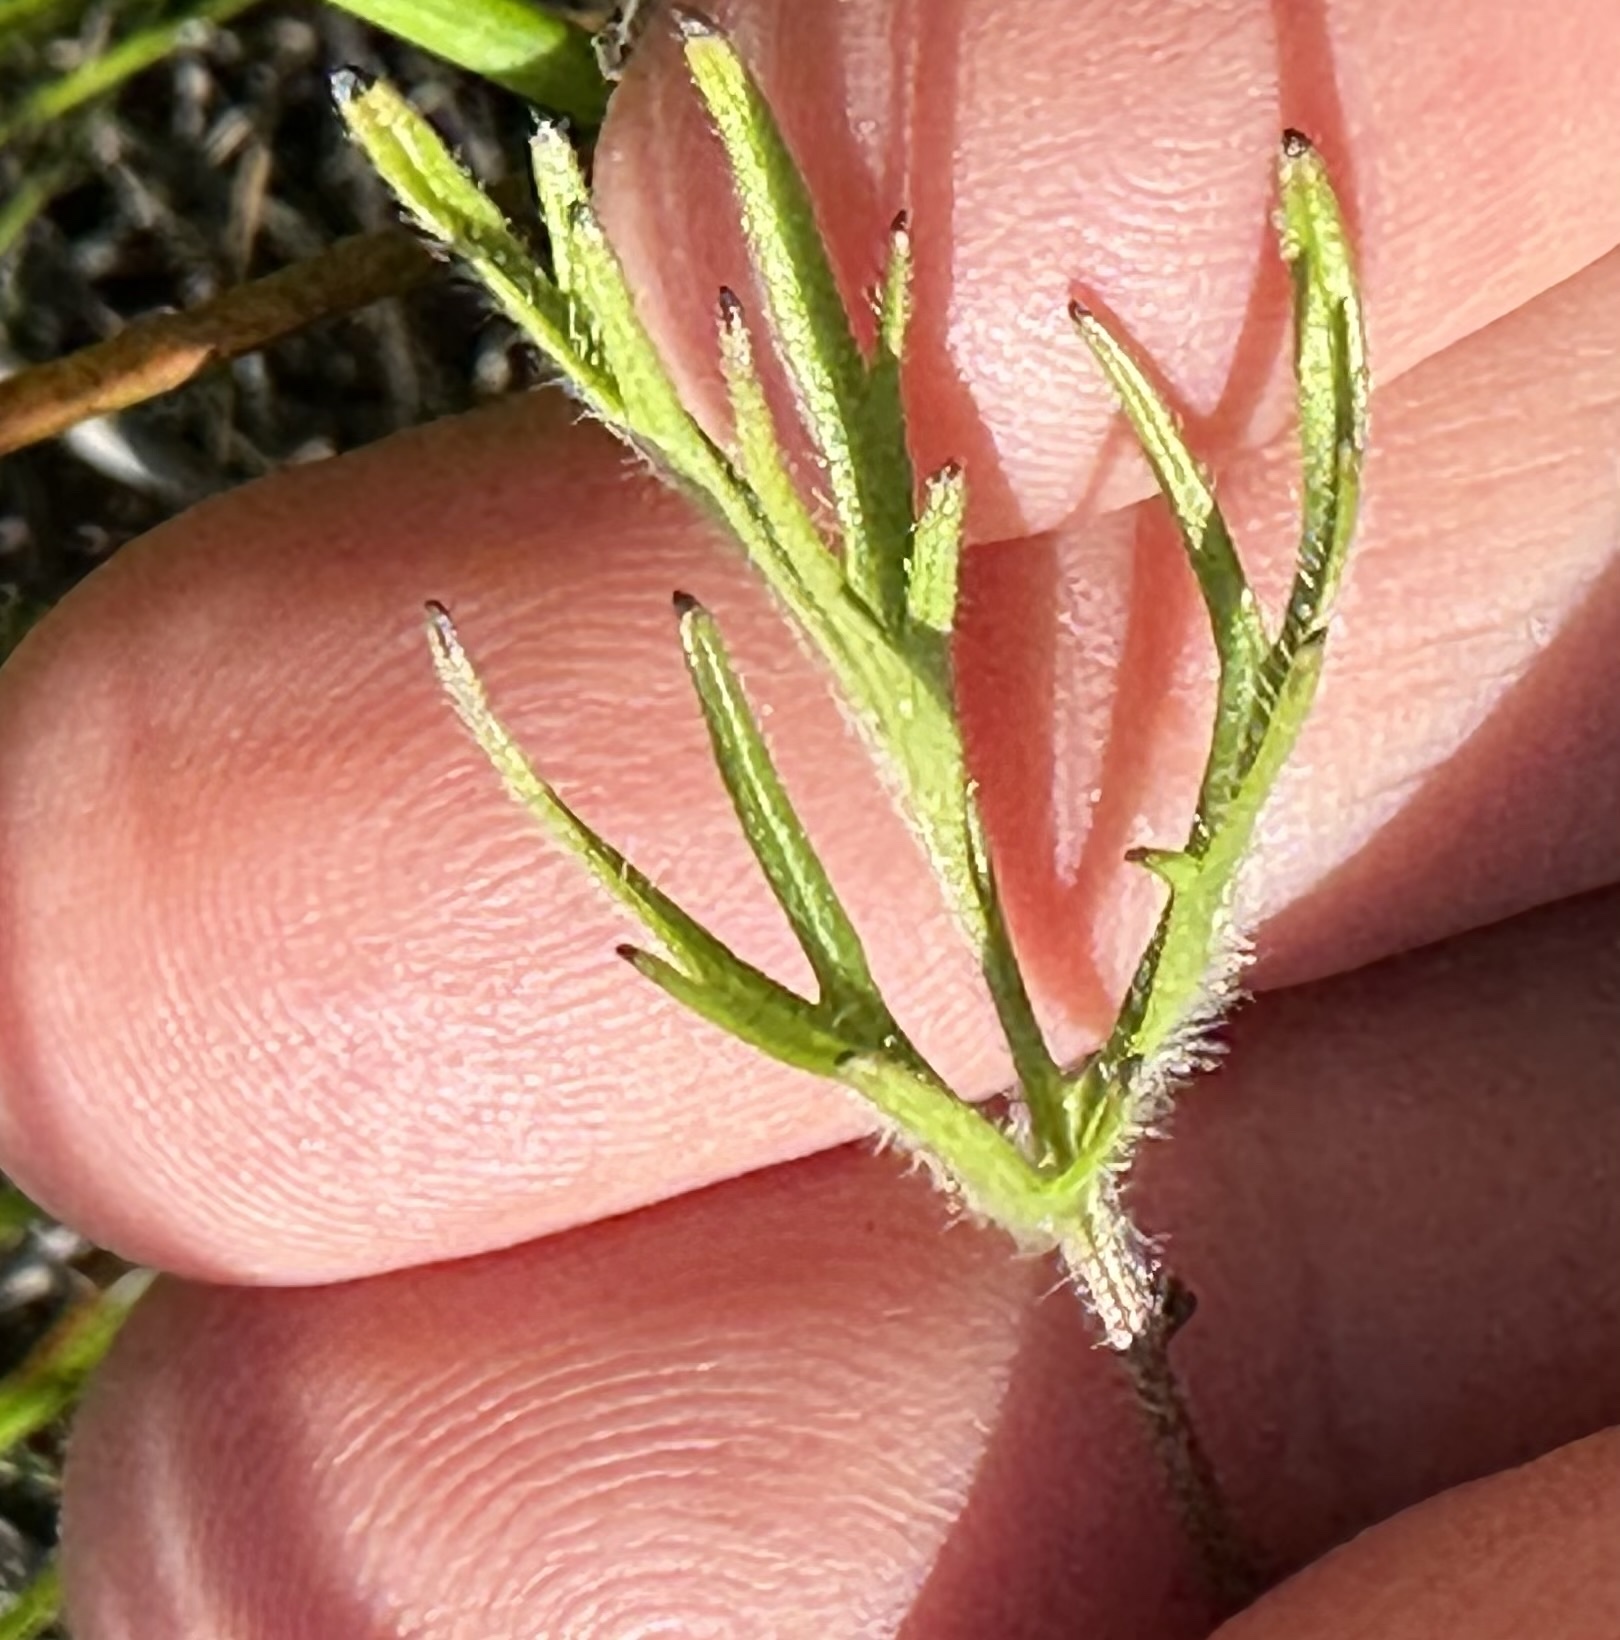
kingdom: Plantae
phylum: Tracheophyta
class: Liliopsida
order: Asparagales
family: Iridaceae
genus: Sisyrinchium
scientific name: Sisyrinchium bellum
